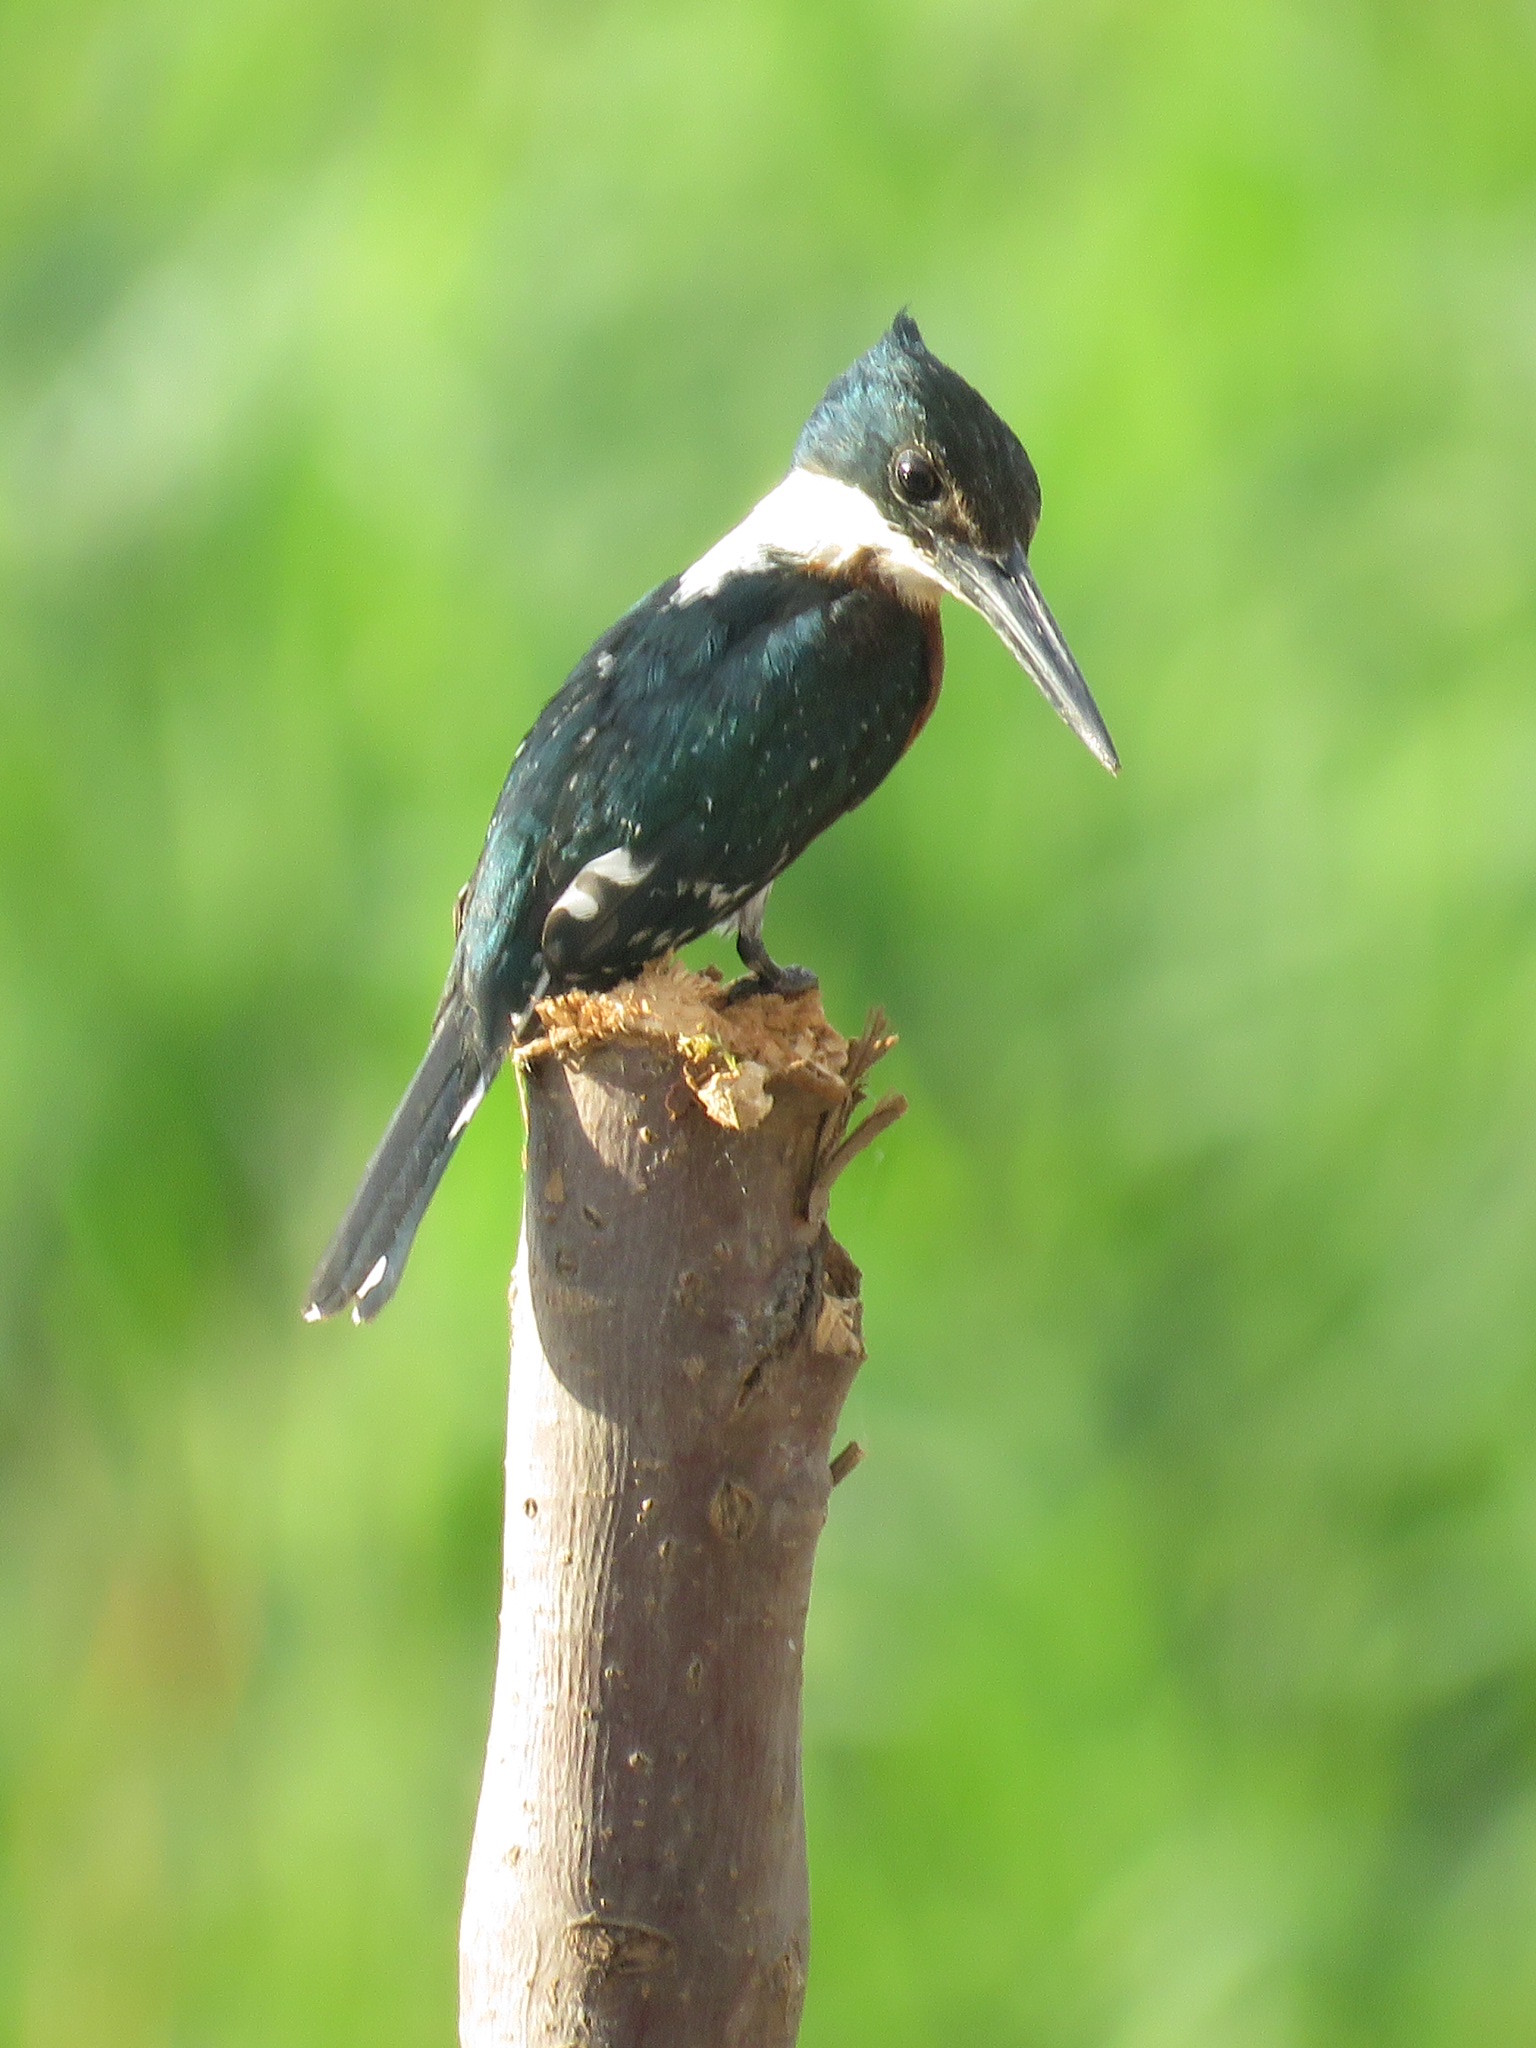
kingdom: Animalia
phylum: Chordata
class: Aves
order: Coraciiformes
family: Alcedinidae
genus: Chloroceryle
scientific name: Chloroceryle americana
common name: Green kingfisher
